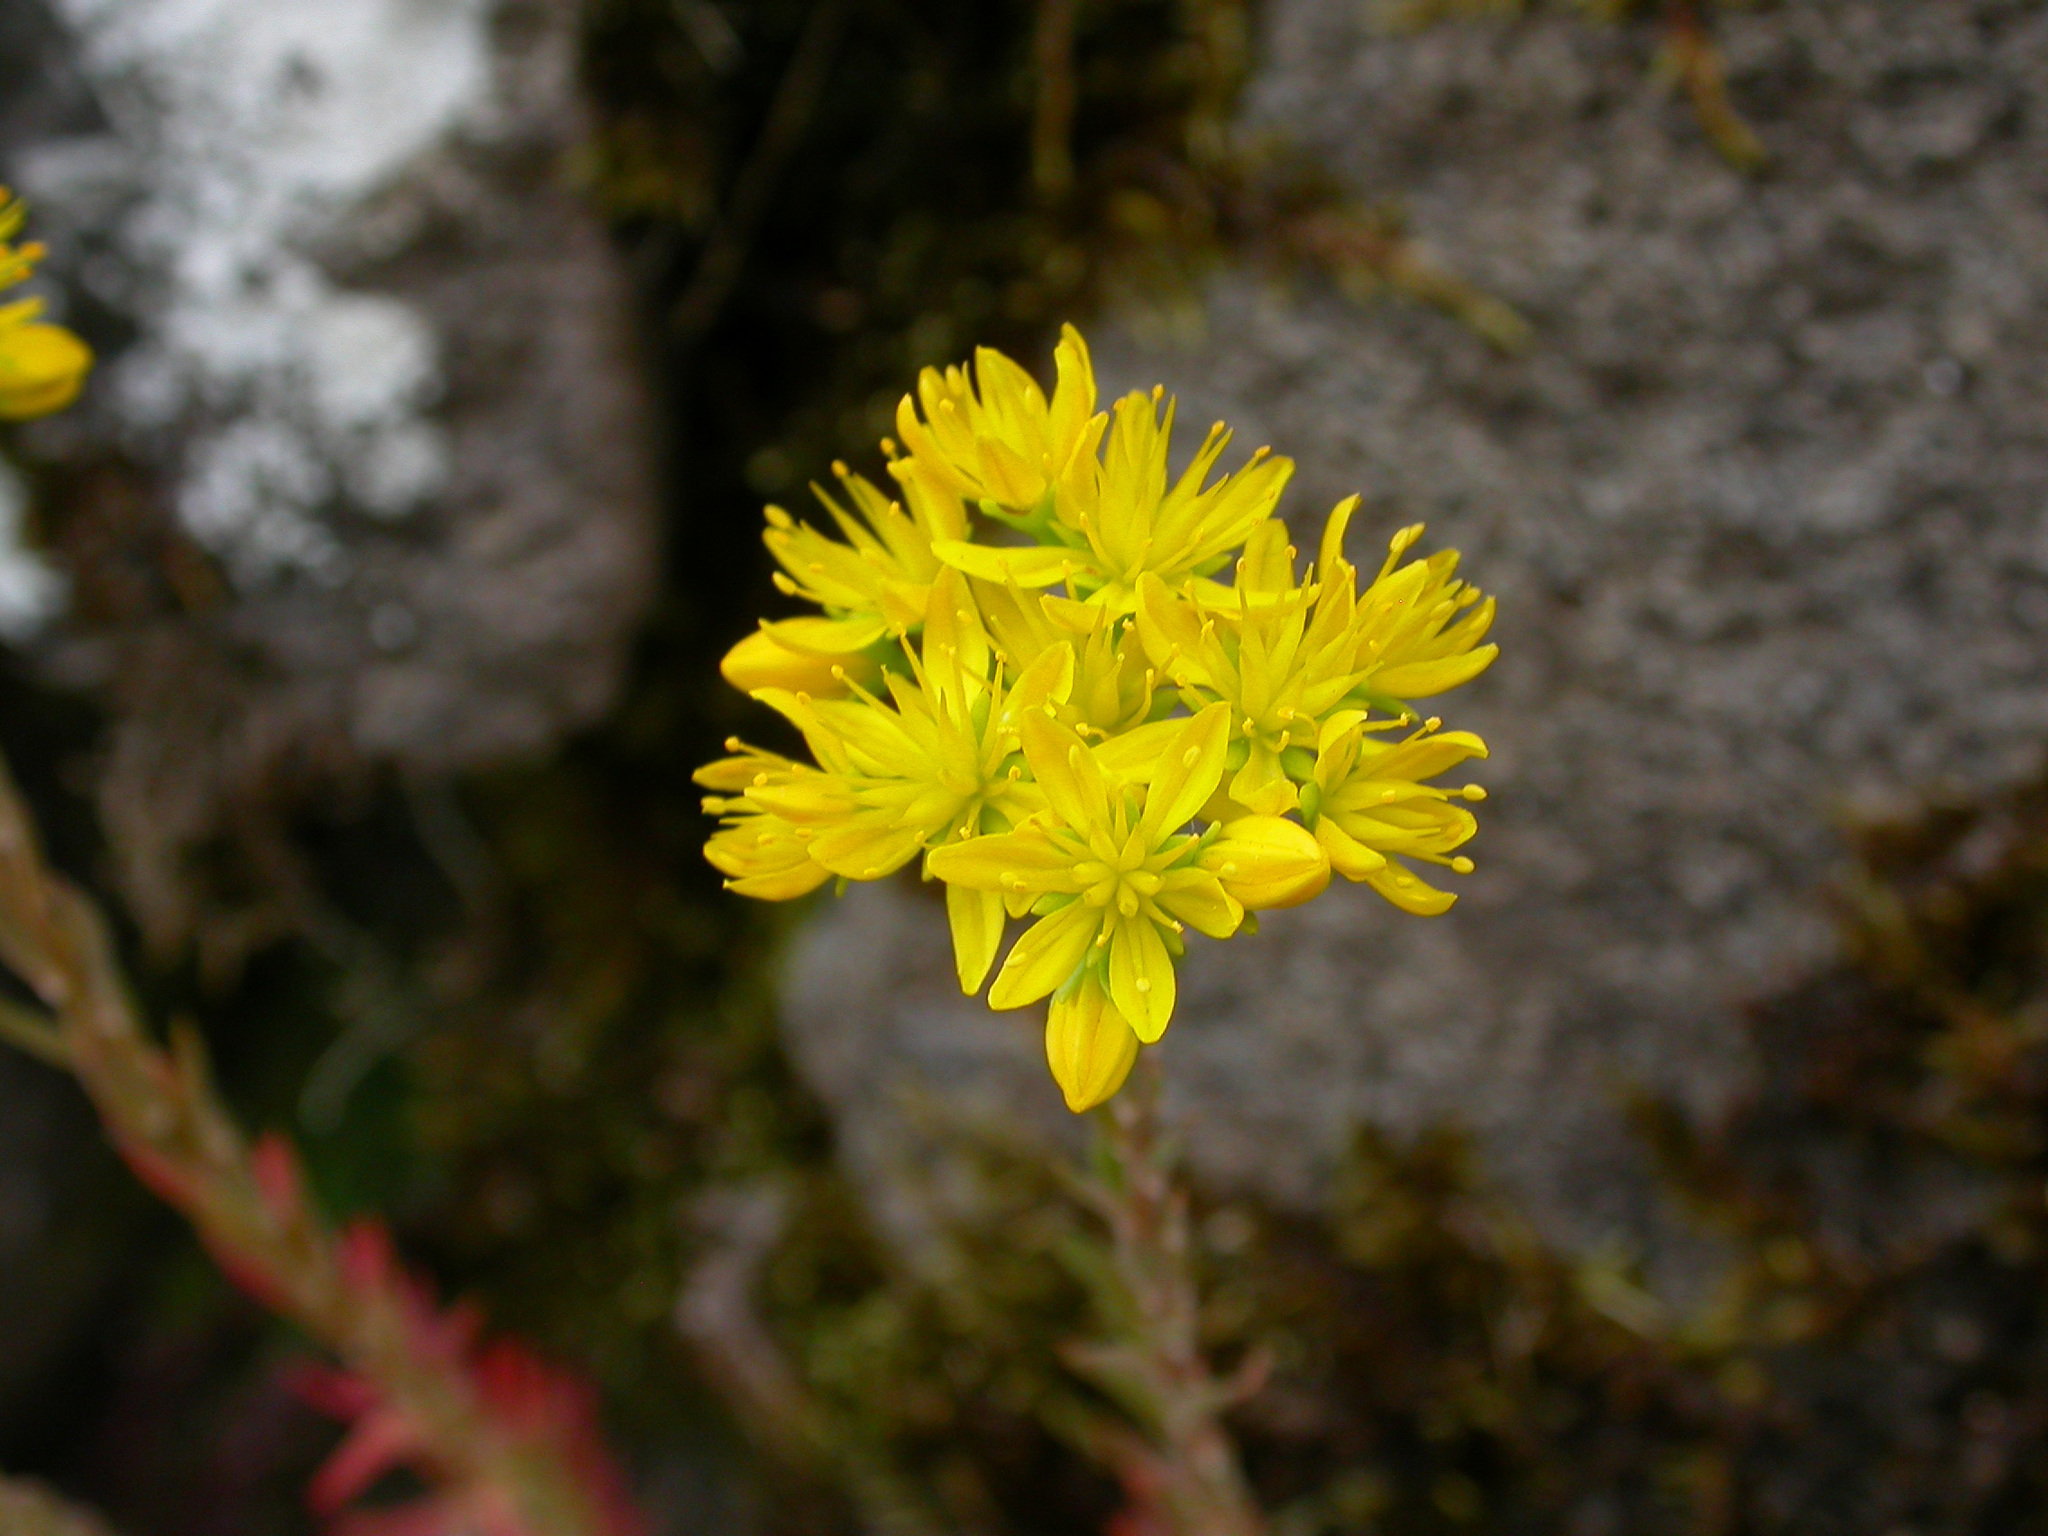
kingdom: Plantae
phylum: Tracheophyta
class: Magnoliopsida
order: Saxifragales
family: Crassulaceae
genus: Petrosedum
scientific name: Petrosedum forsterianum
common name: Forster's stonecrop
